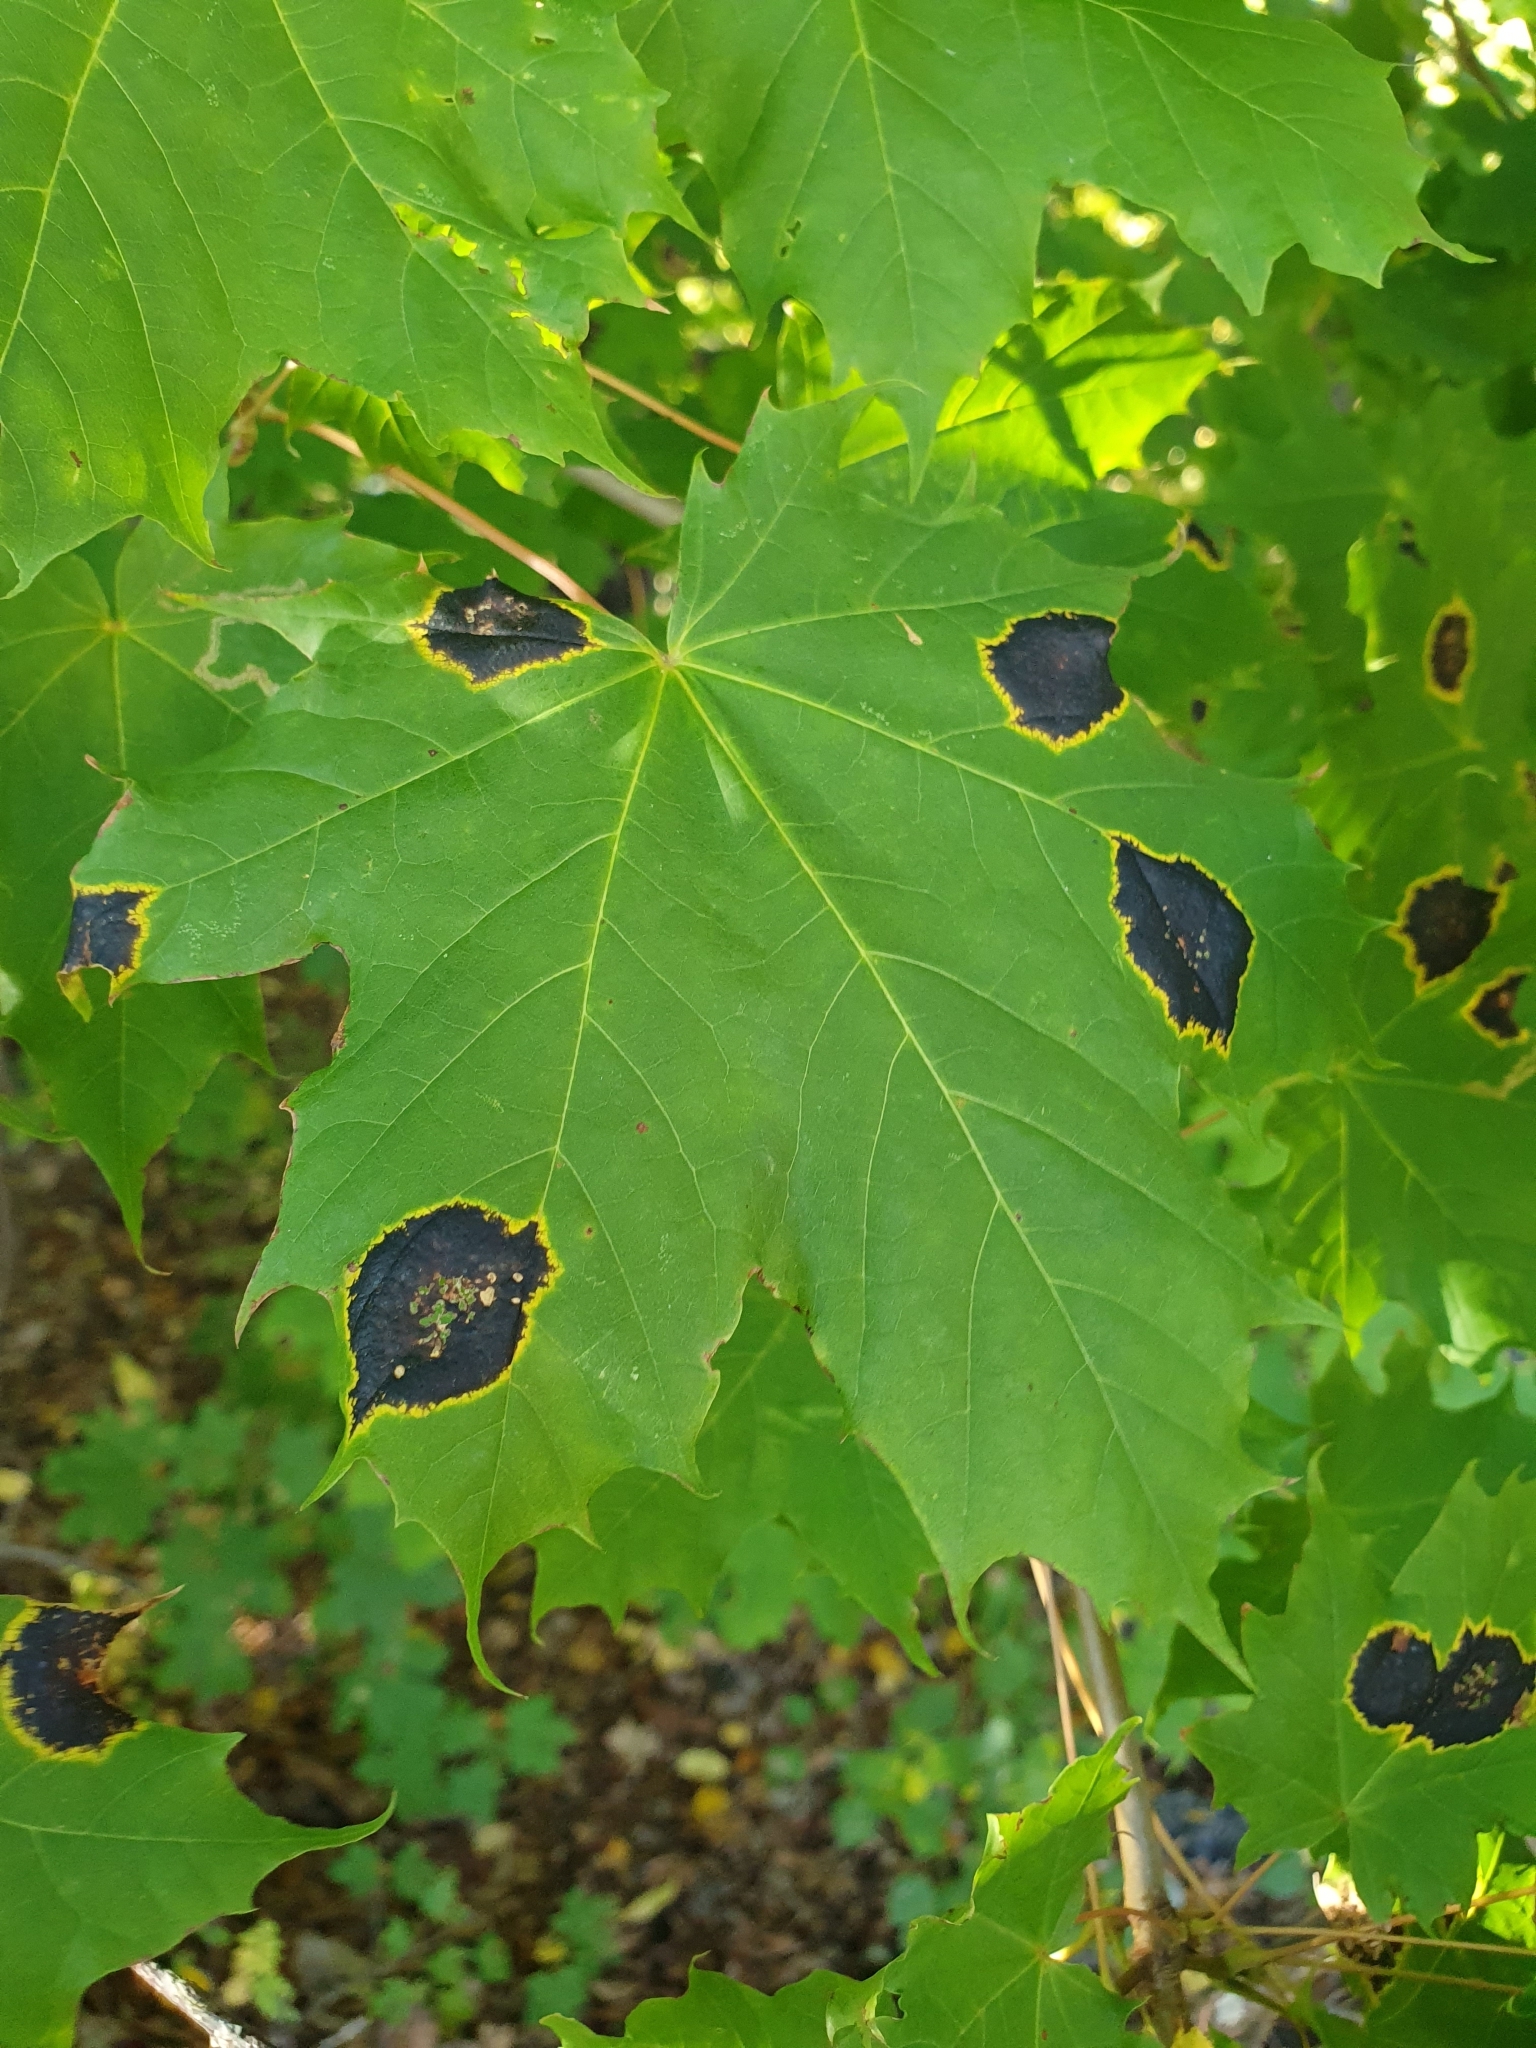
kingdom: Fungi
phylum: Ascomycota
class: Leotiomycetes
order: Rhytismatales
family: Rhytismataceae
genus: Rhytisma
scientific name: Rhytisma acerinum
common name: European tar spot
